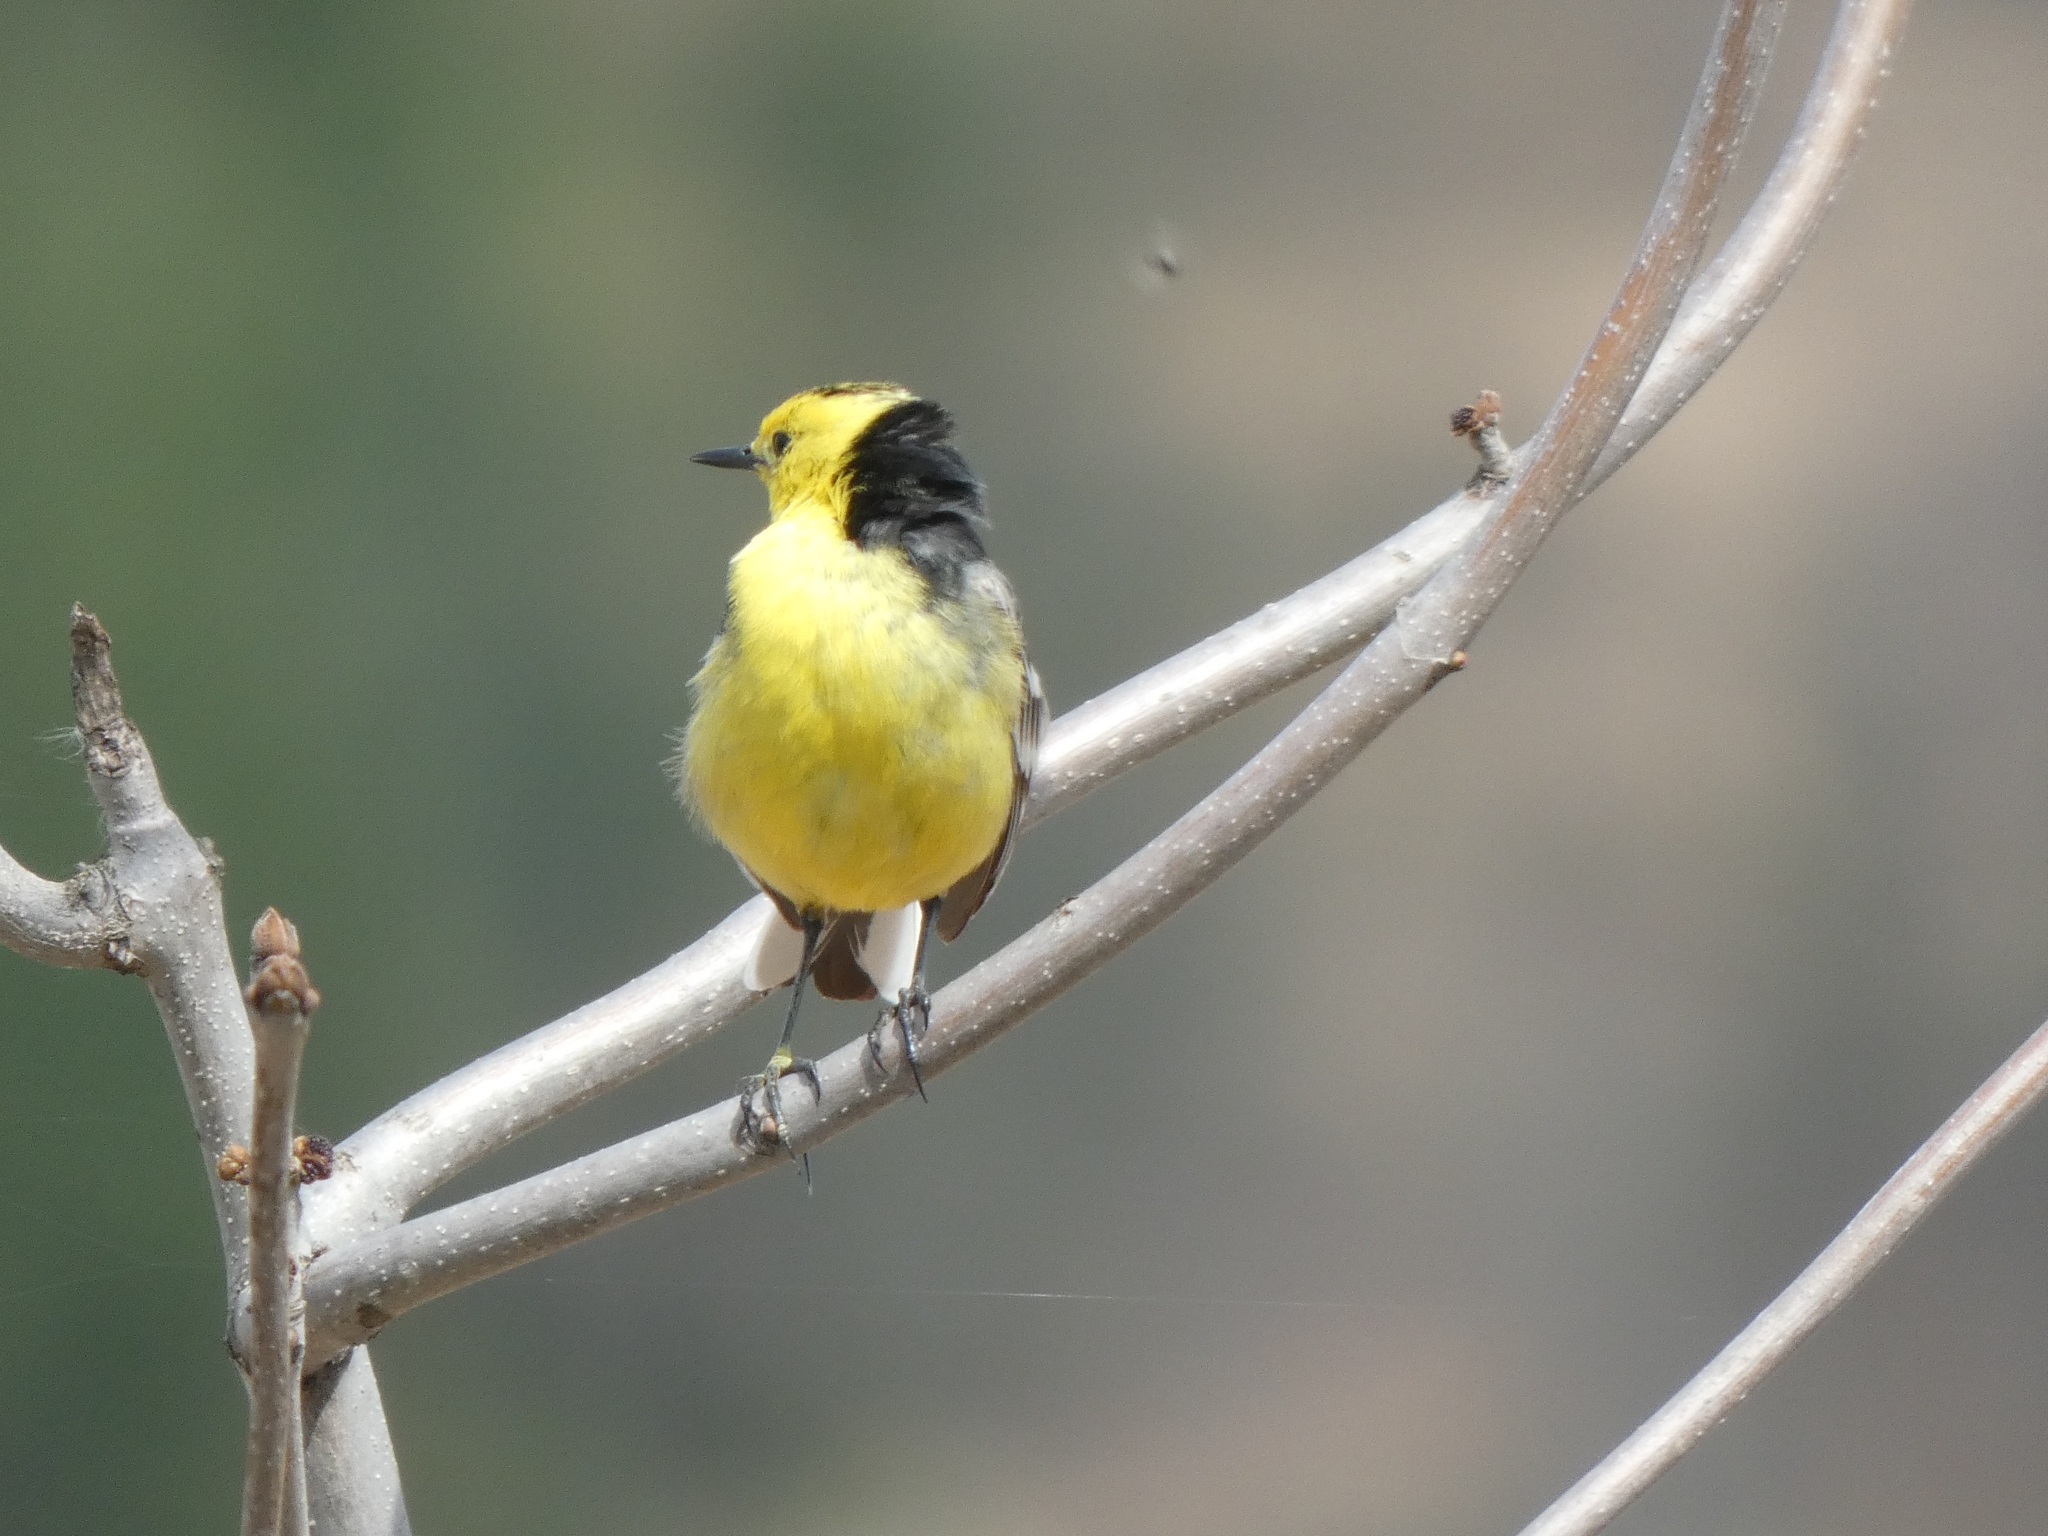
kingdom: Animalia
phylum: Chordata
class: Aves
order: Passeriformes
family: Motacillidae
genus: Motacilla
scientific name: Motacilla citreola
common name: Citrine wagtail
